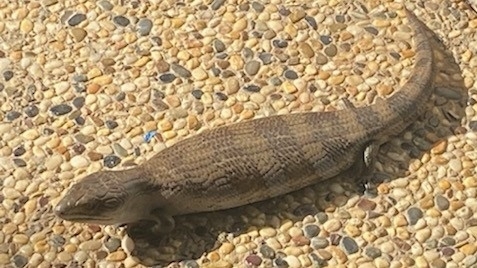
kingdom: Animalia
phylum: Chordata
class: Squamata
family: Scincidae
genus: Tiliqua
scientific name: Tiliqua scincoides
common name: Common bluetongue
